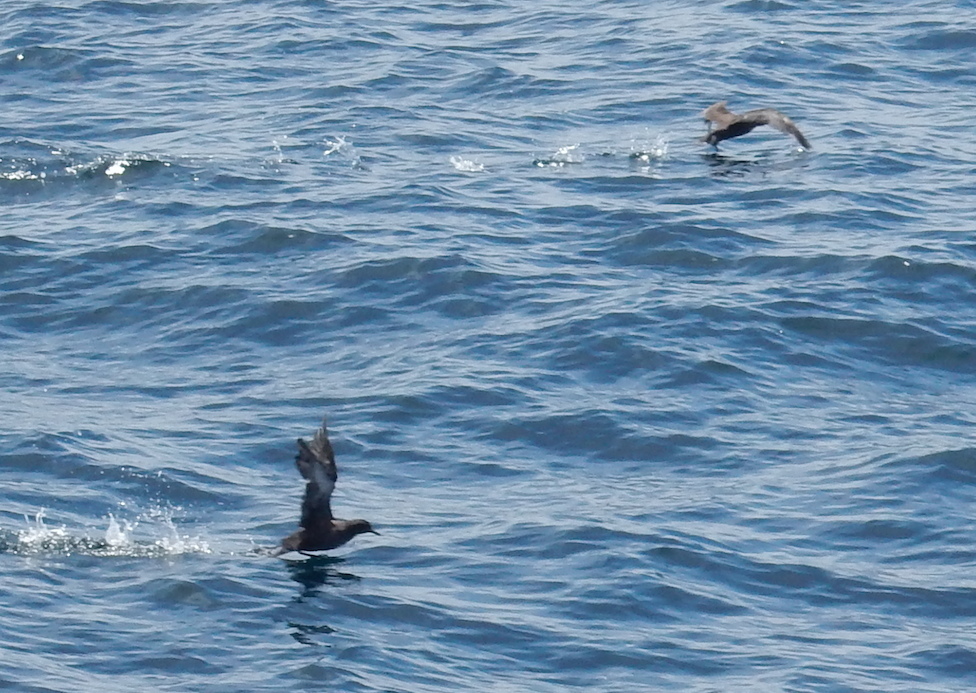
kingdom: Animalia
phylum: Chordata
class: Aves
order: Procellariiformes
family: Procellariidae
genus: Puffinus
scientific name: Puffinus griseus
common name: Sooty shearwater
